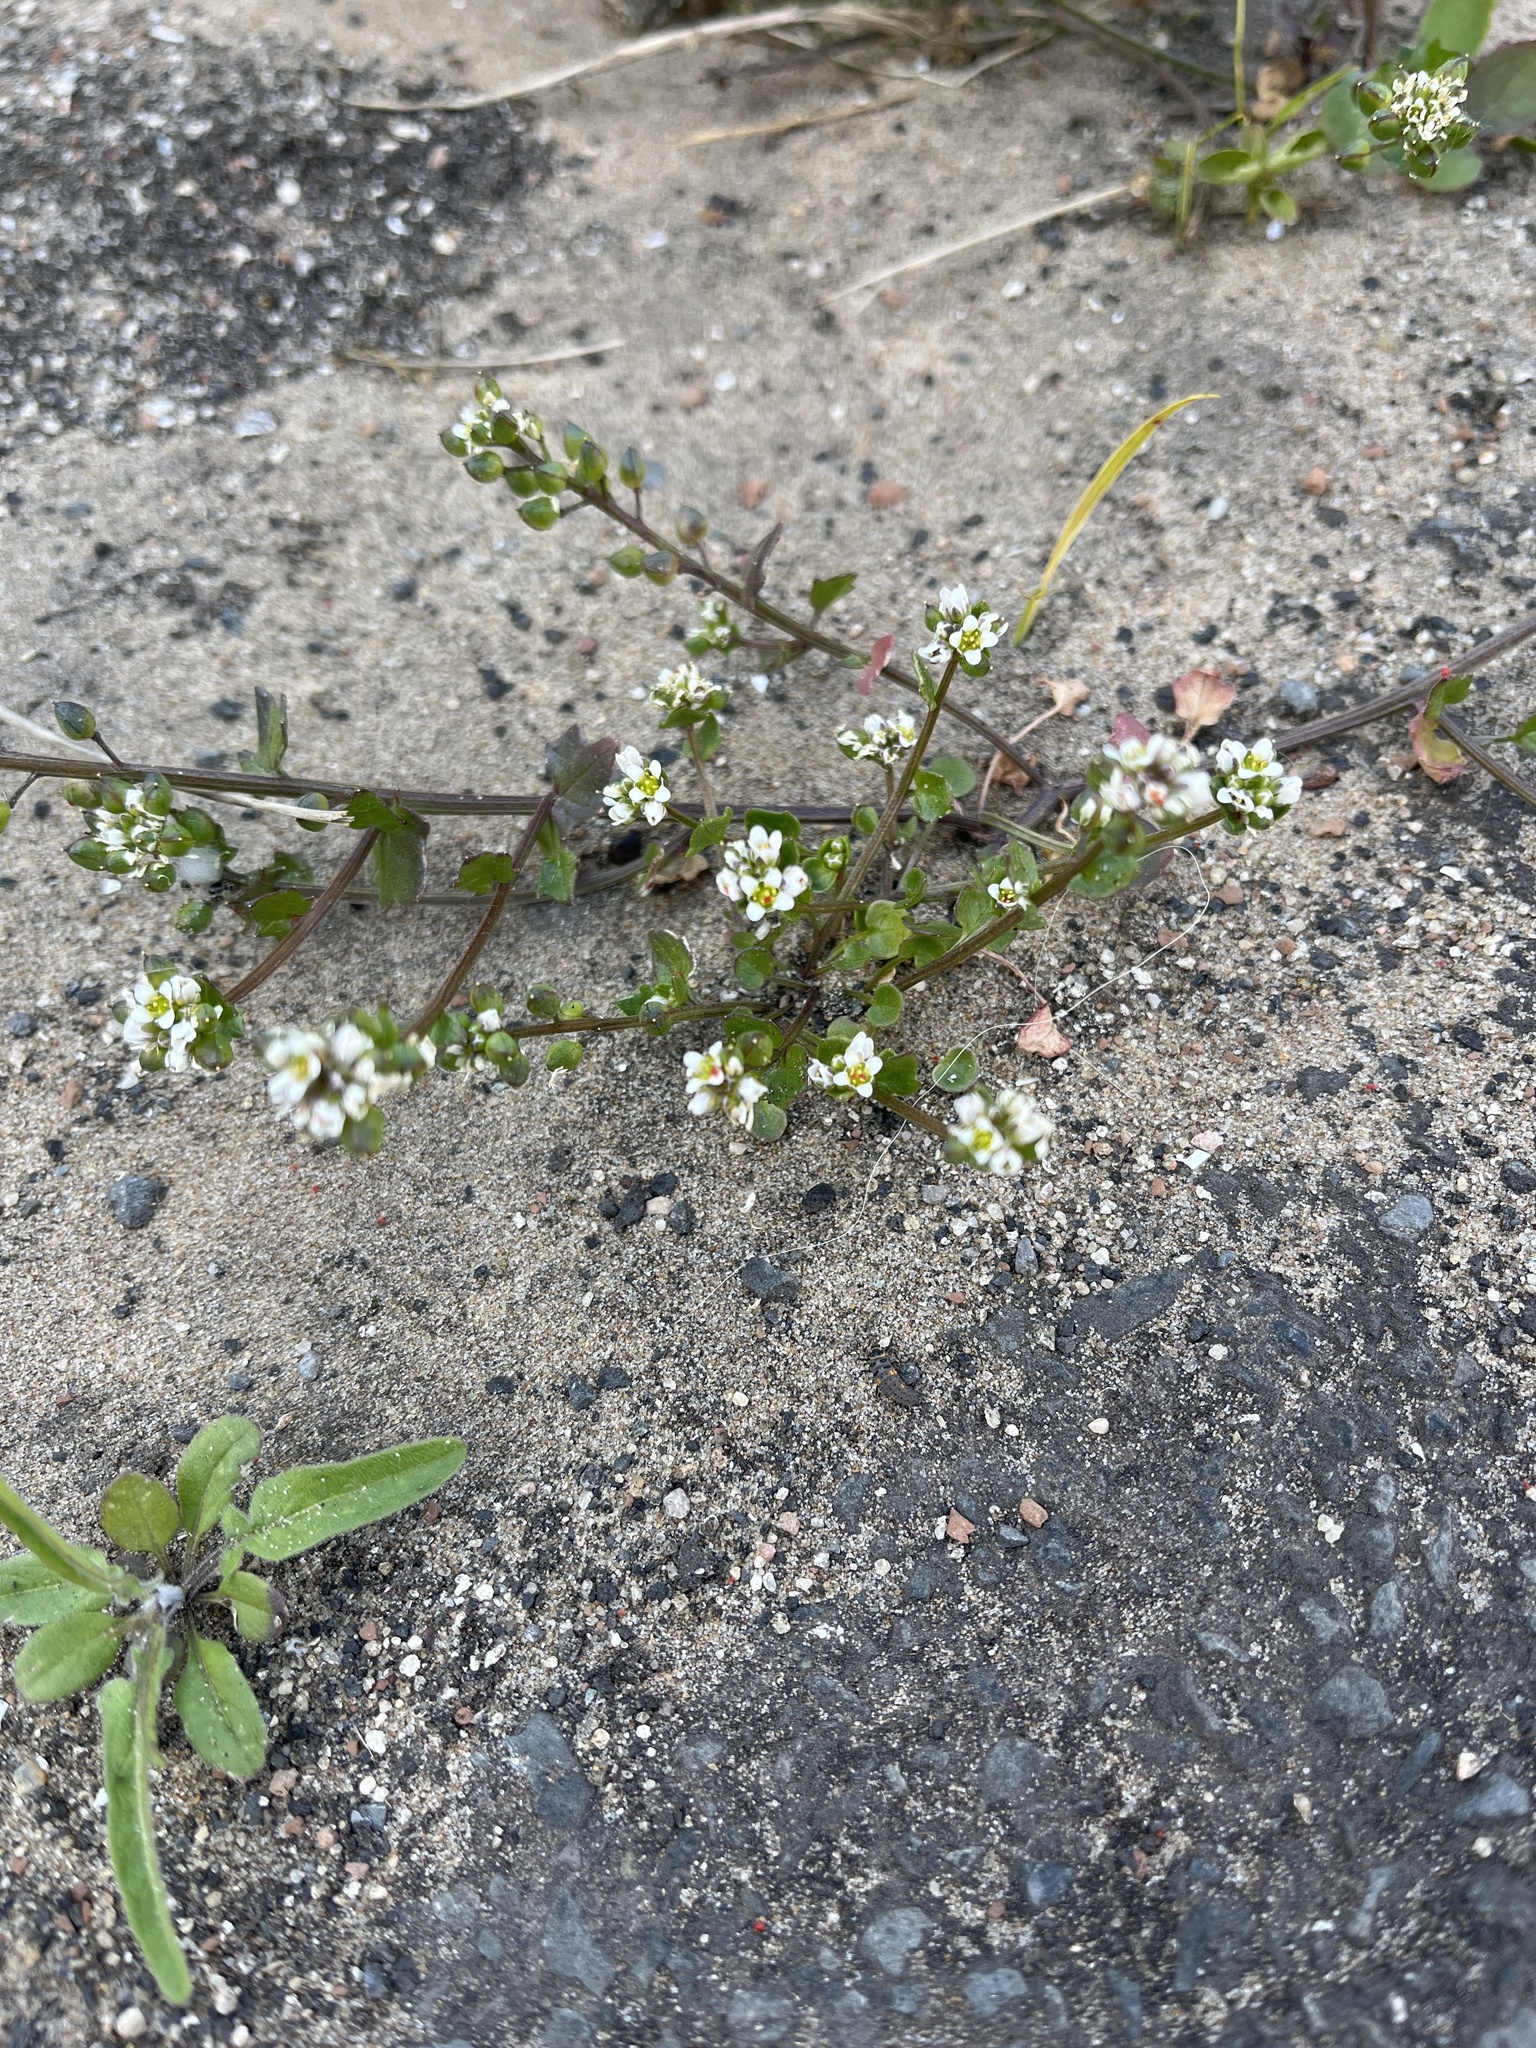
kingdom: Plantae
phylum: Tracheophyta
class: Magnoliopsida
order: Brassicales
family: Brassicaceae
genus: Cochlearia
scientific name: Cochlearia danica
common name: Early scurvygrass
